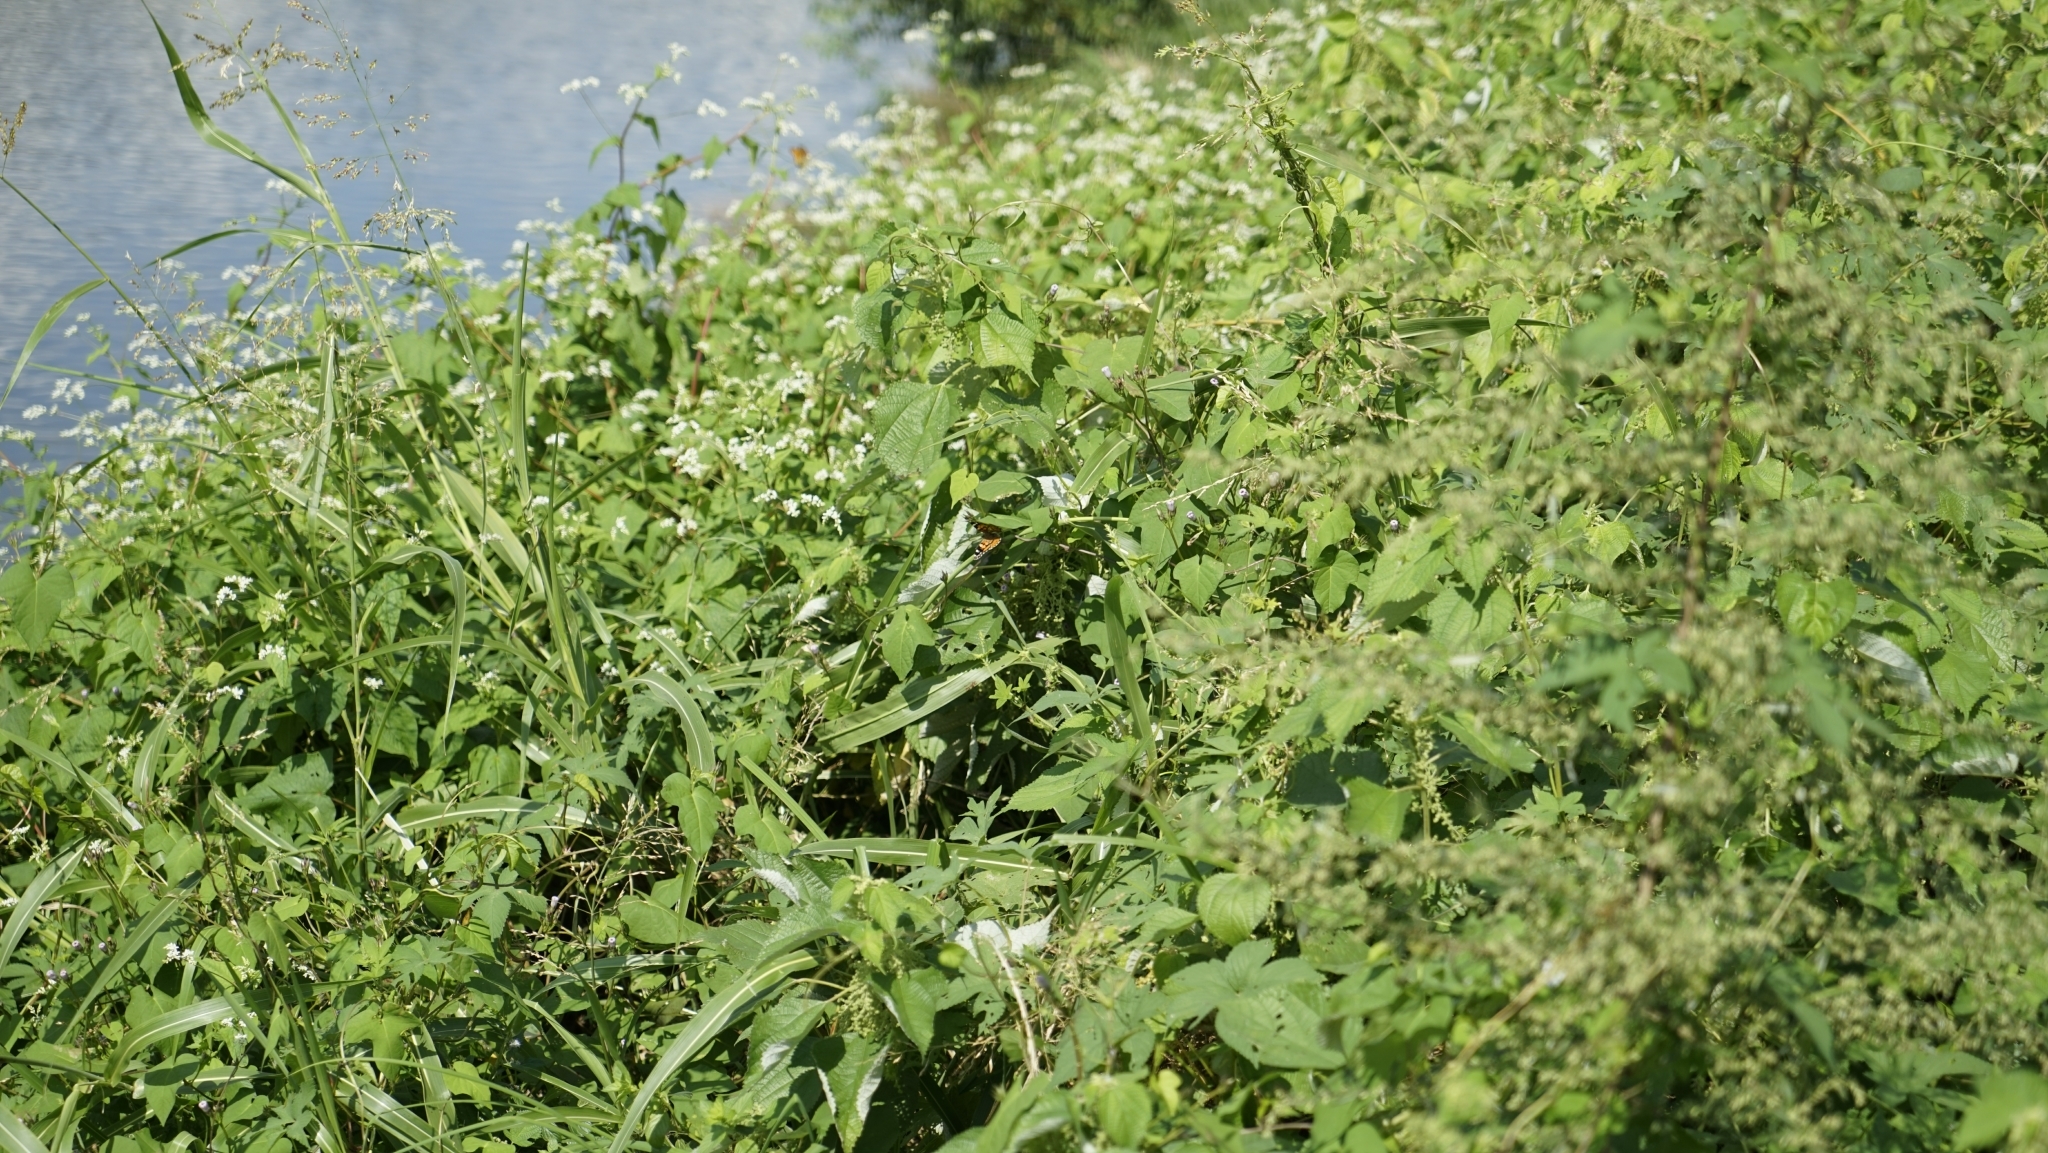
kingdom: Animalia
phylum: Arthropoda
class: Insecta
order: Lepidoptera
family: Nymphalidae
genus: Vanessa
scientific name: Vanessa cardui
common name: Painted lady
